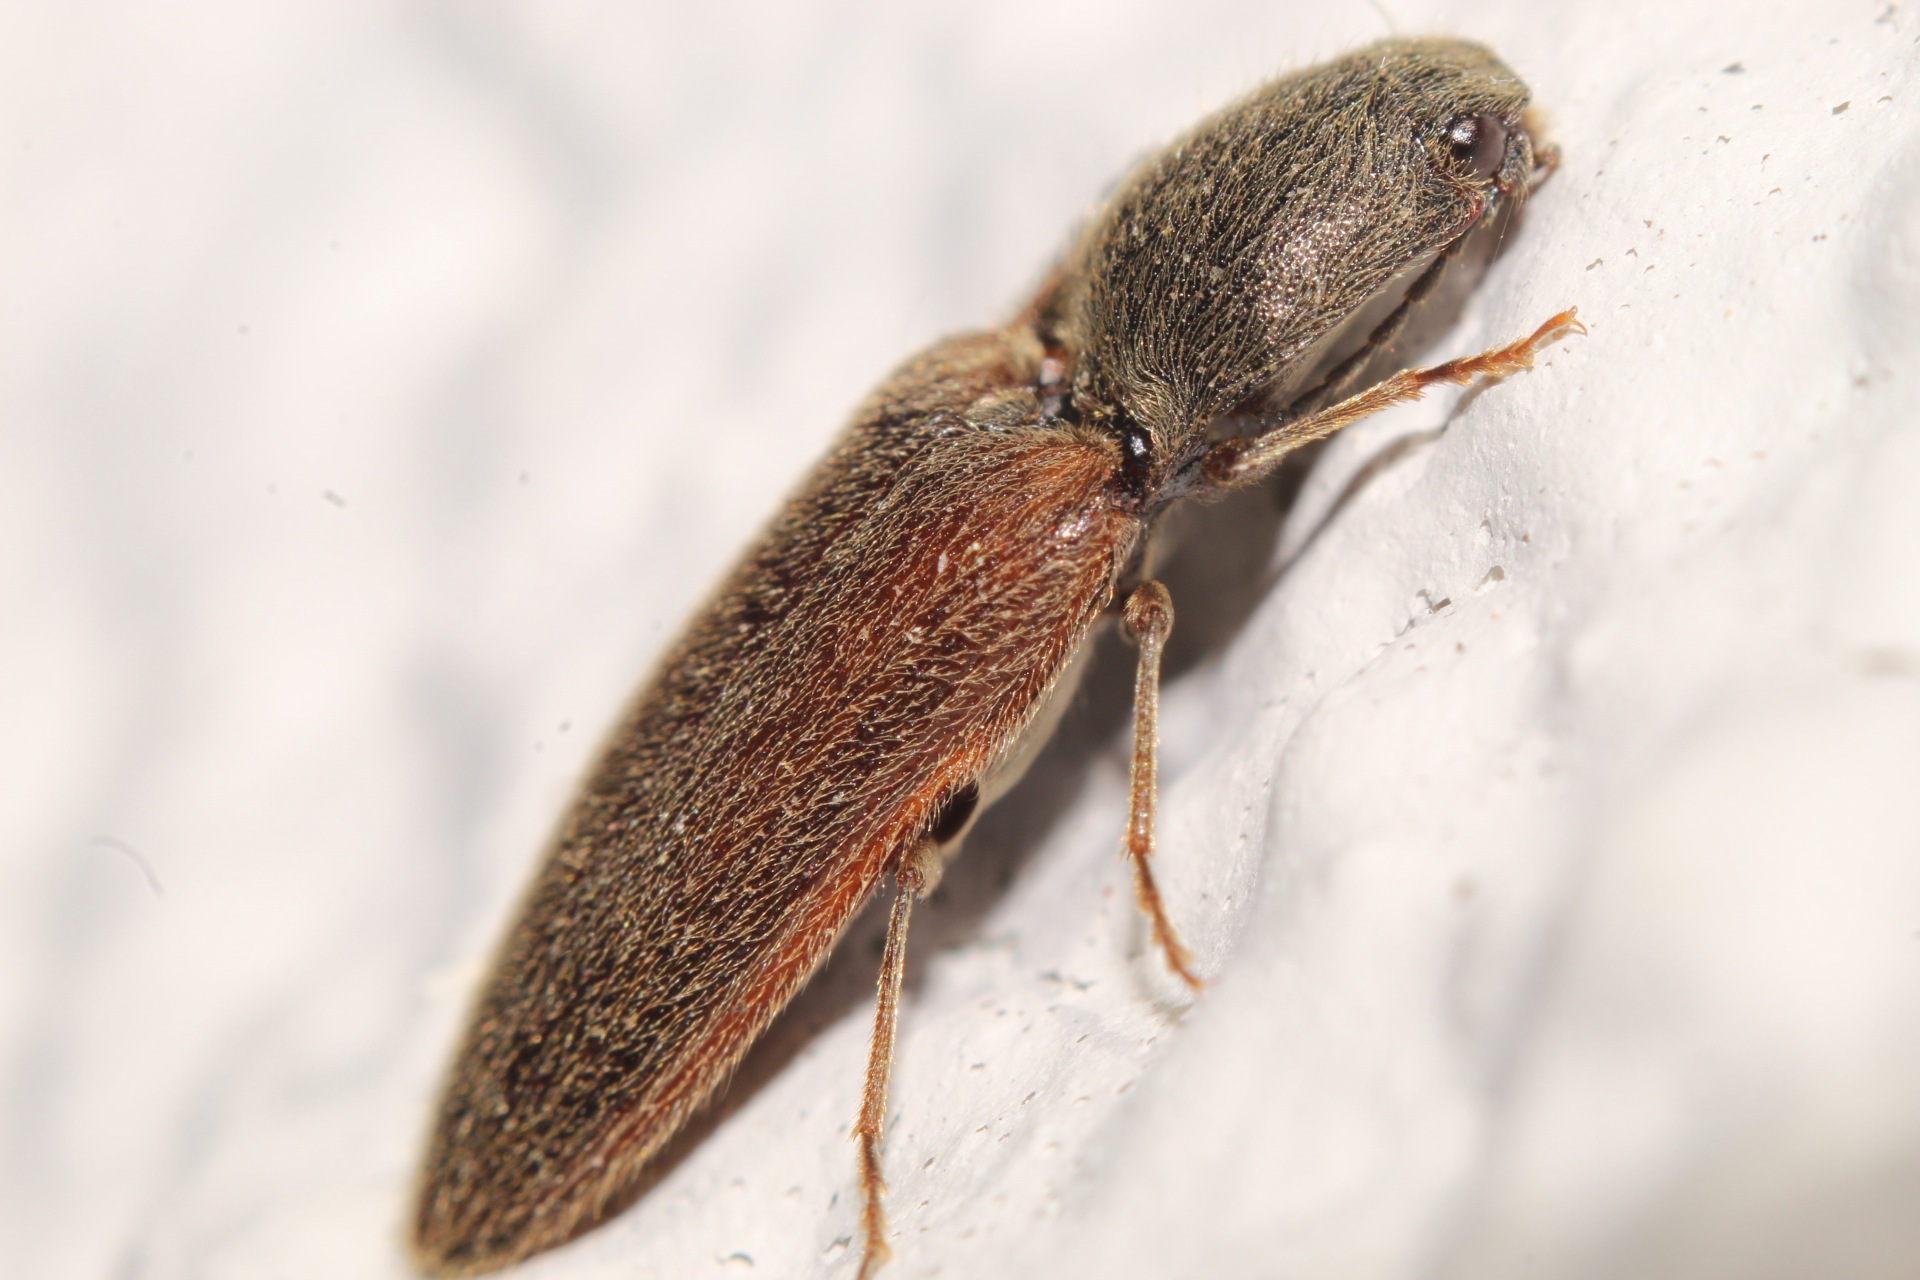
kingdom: Animalia
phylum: Arthropoda
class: Insecta
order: Coleoptera
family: Elateridae
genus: Athous
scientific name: Athous haemorrhoidalis
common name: Red-brown click beetle
